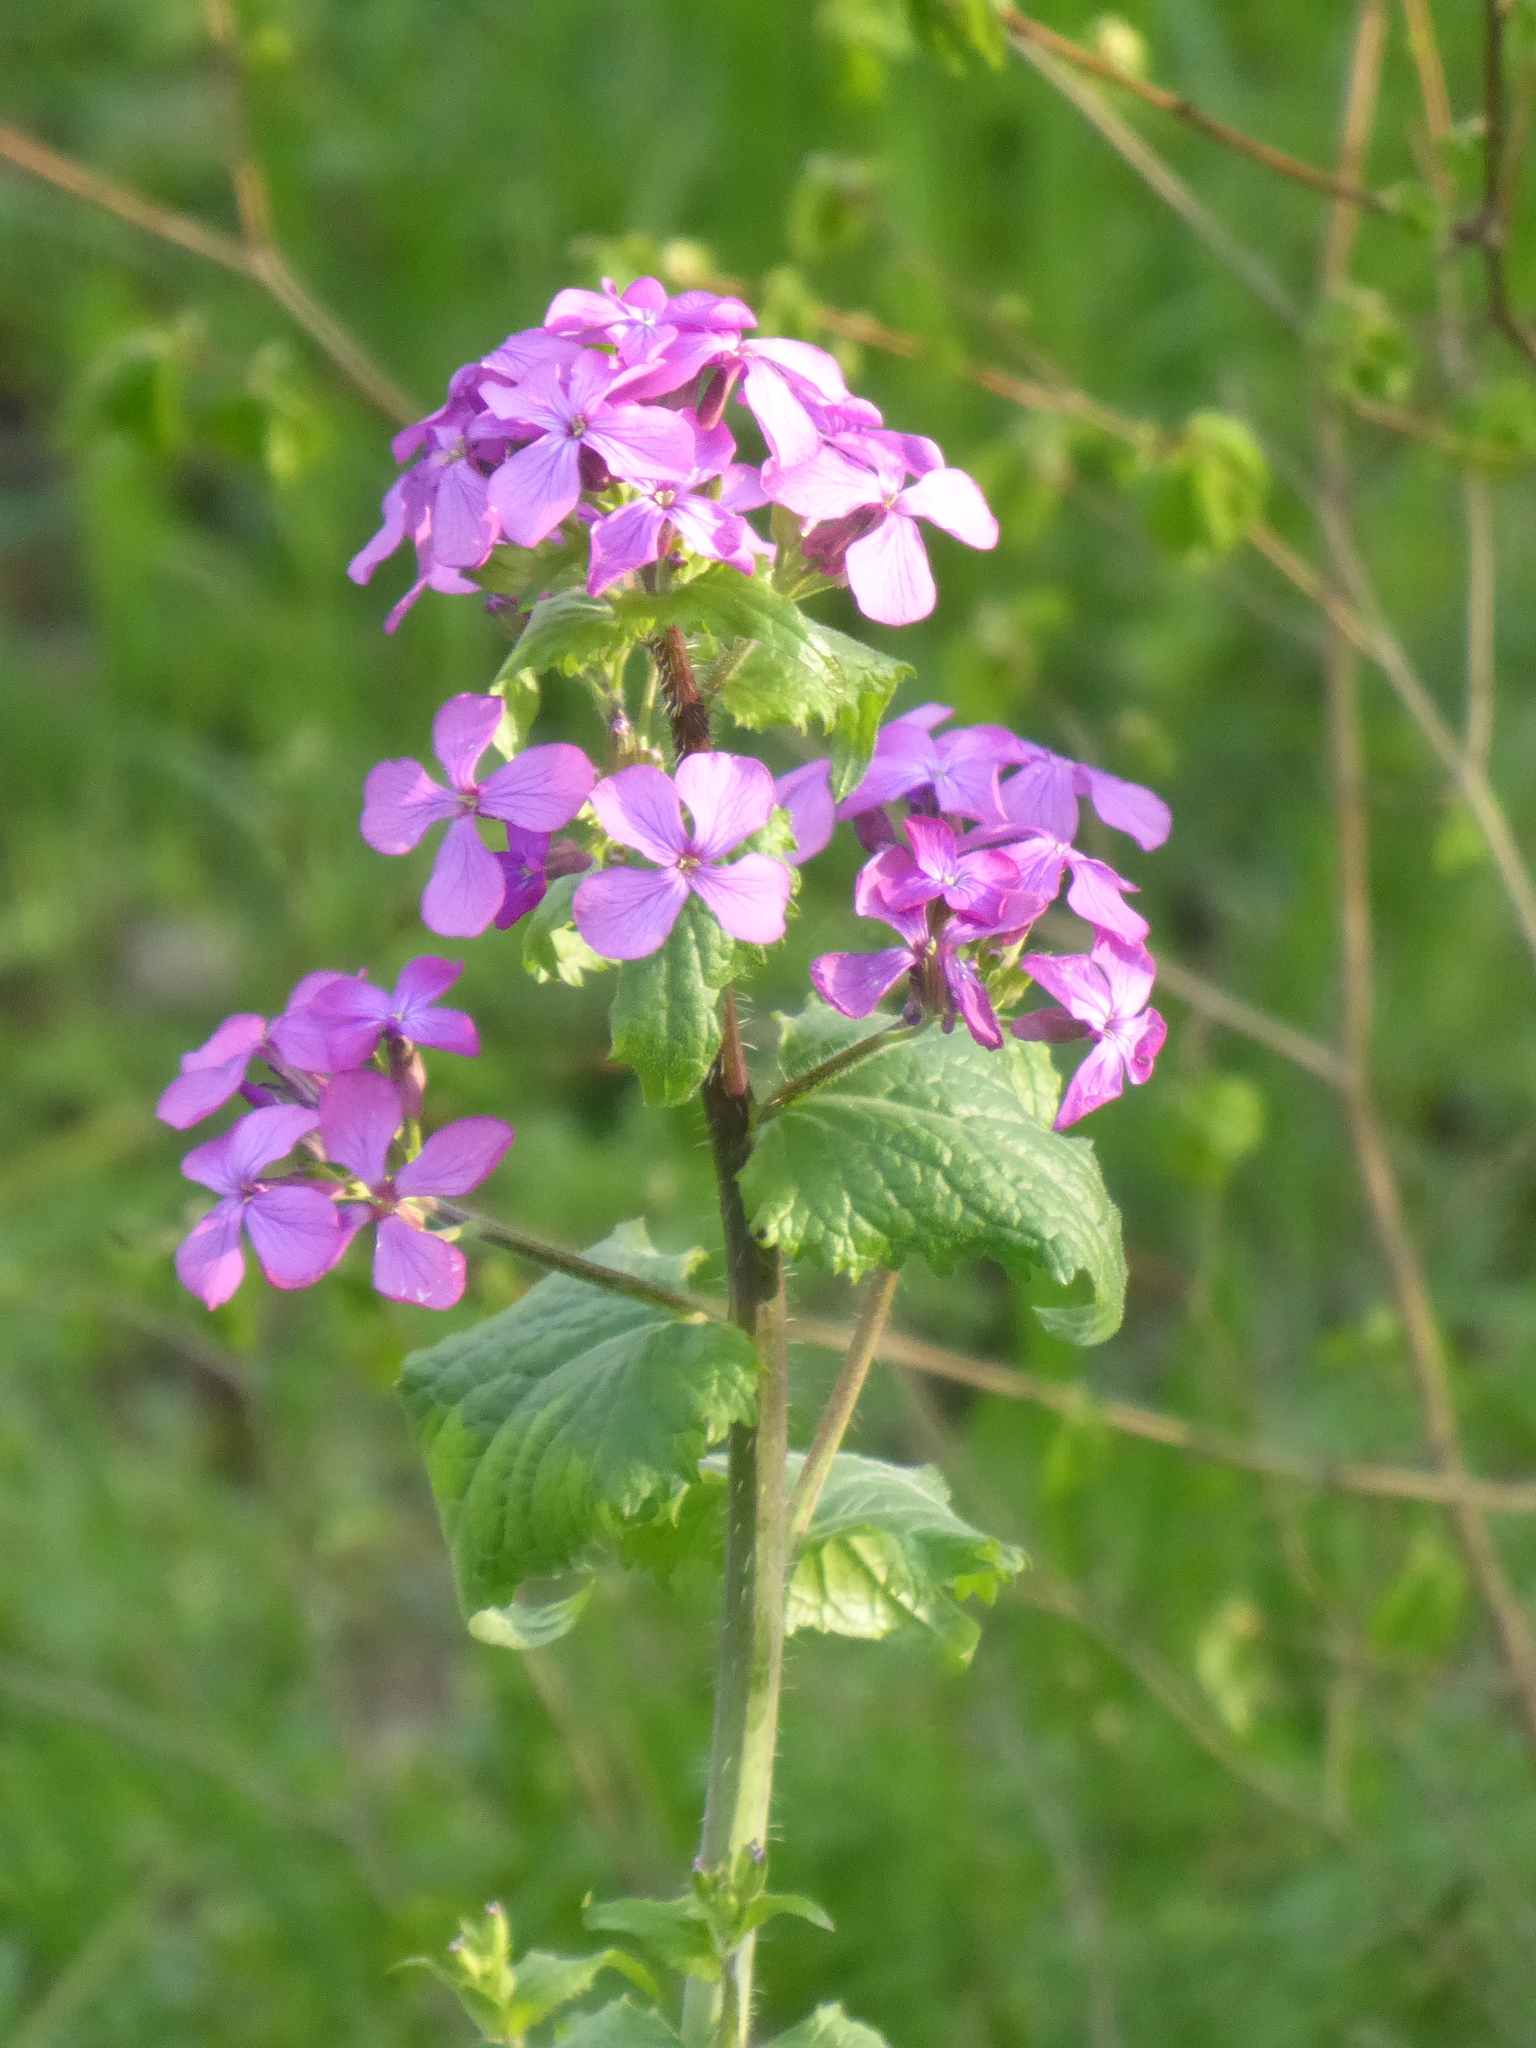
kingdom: Plantae
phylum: Tracheophyta
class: Magnoliopsida
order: Brassicales
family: Brassicaceae
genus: Lunaria
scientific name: Lunaria annua
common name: Honesty
